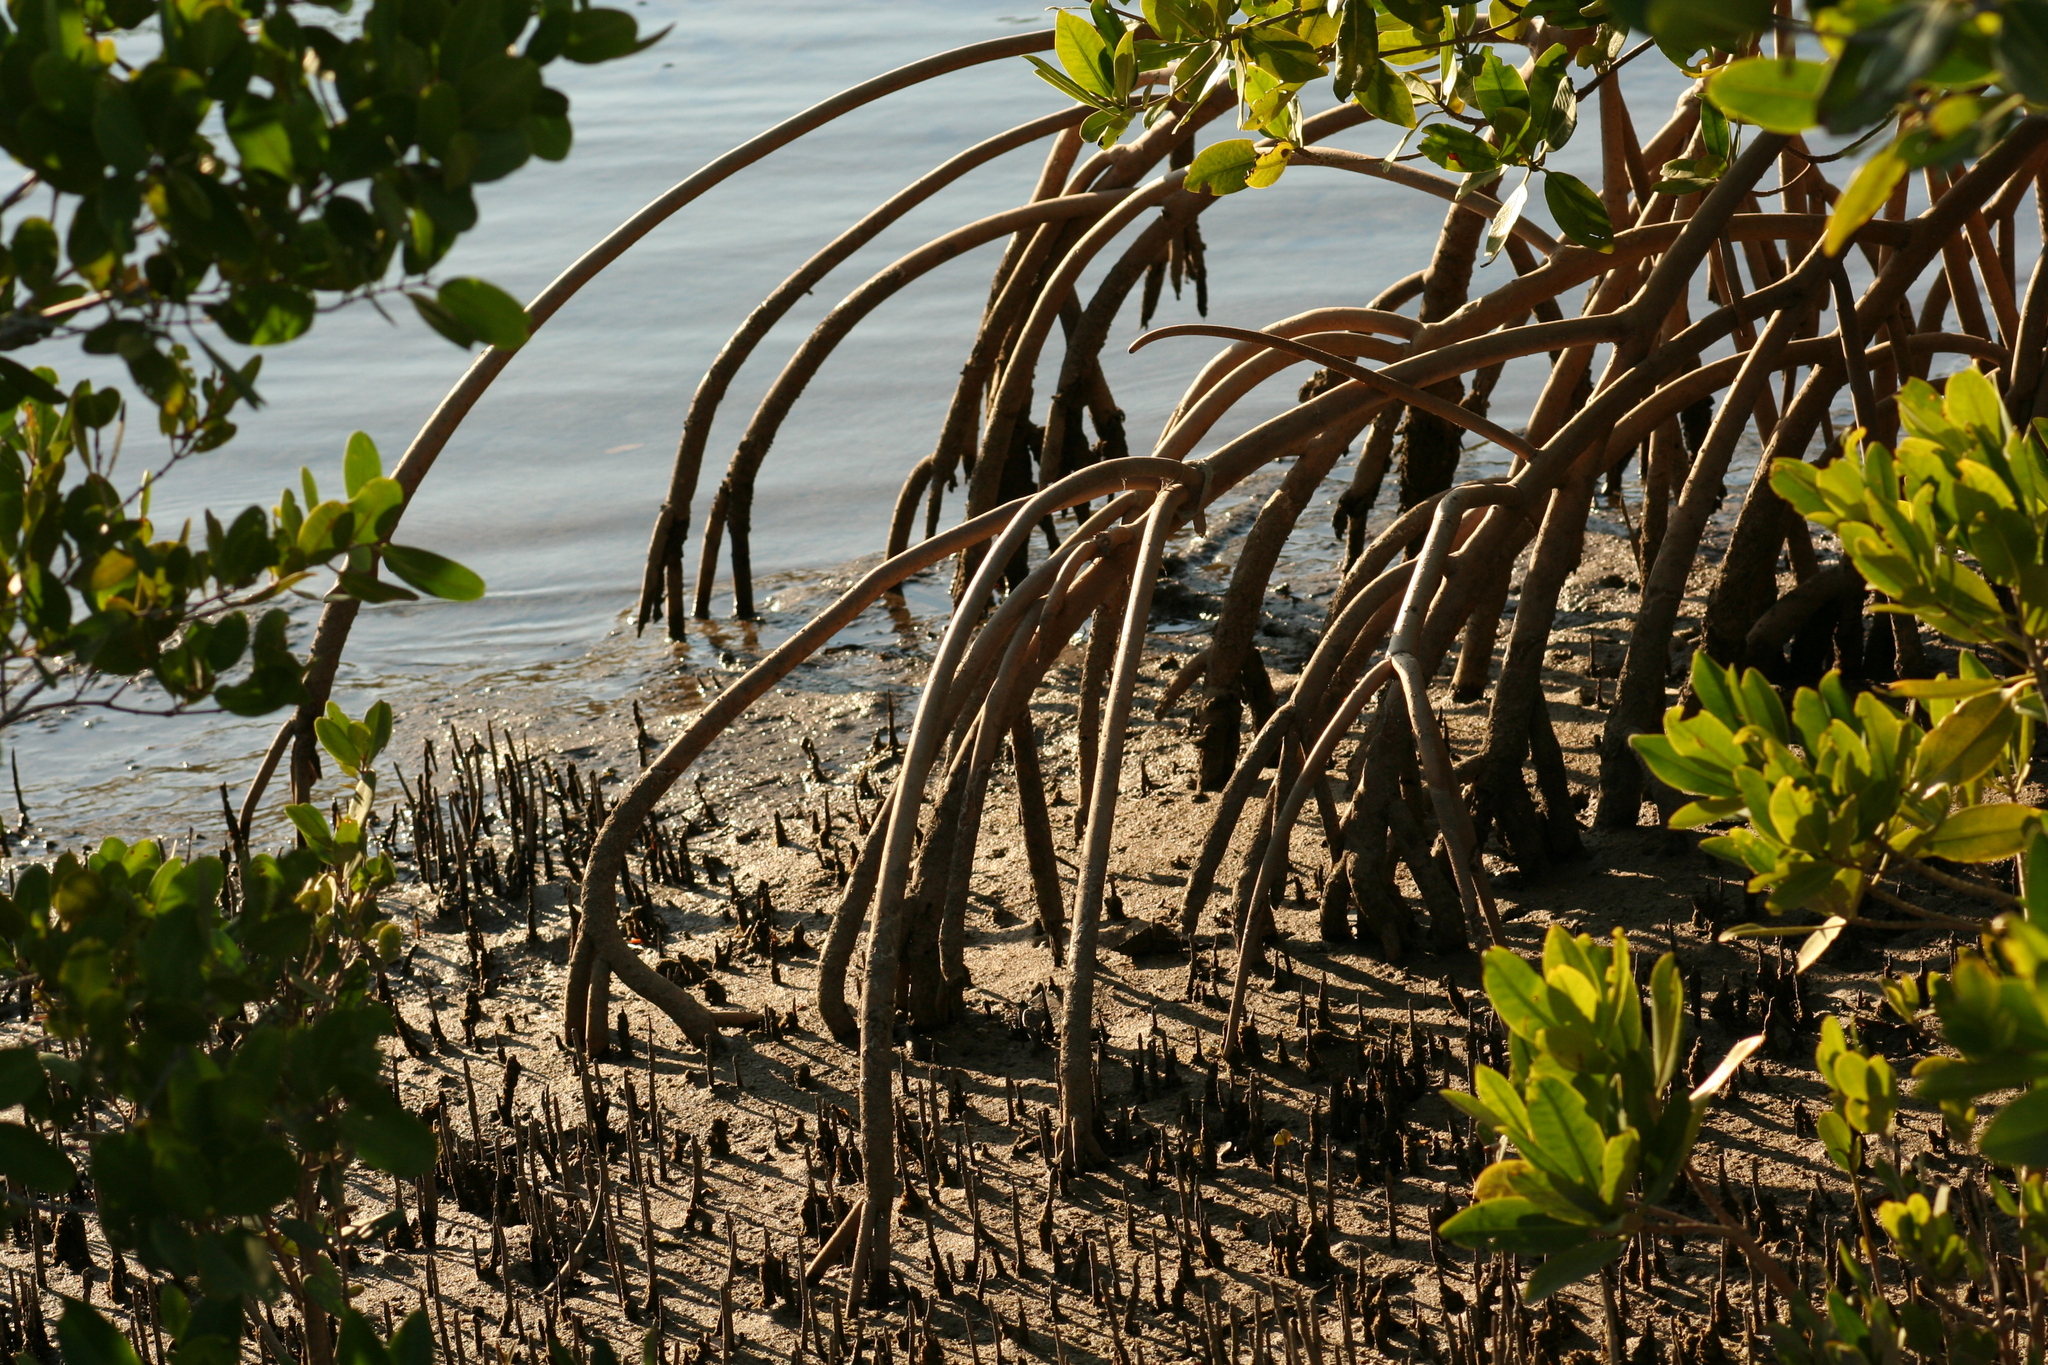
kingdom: Plantae
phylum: Tracheophyta
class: Magnoliopsida
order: Malpighiales
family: Rhizophoraceae
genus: Rhizophora
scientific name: Rhizophora mangle
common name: Red mangrove
